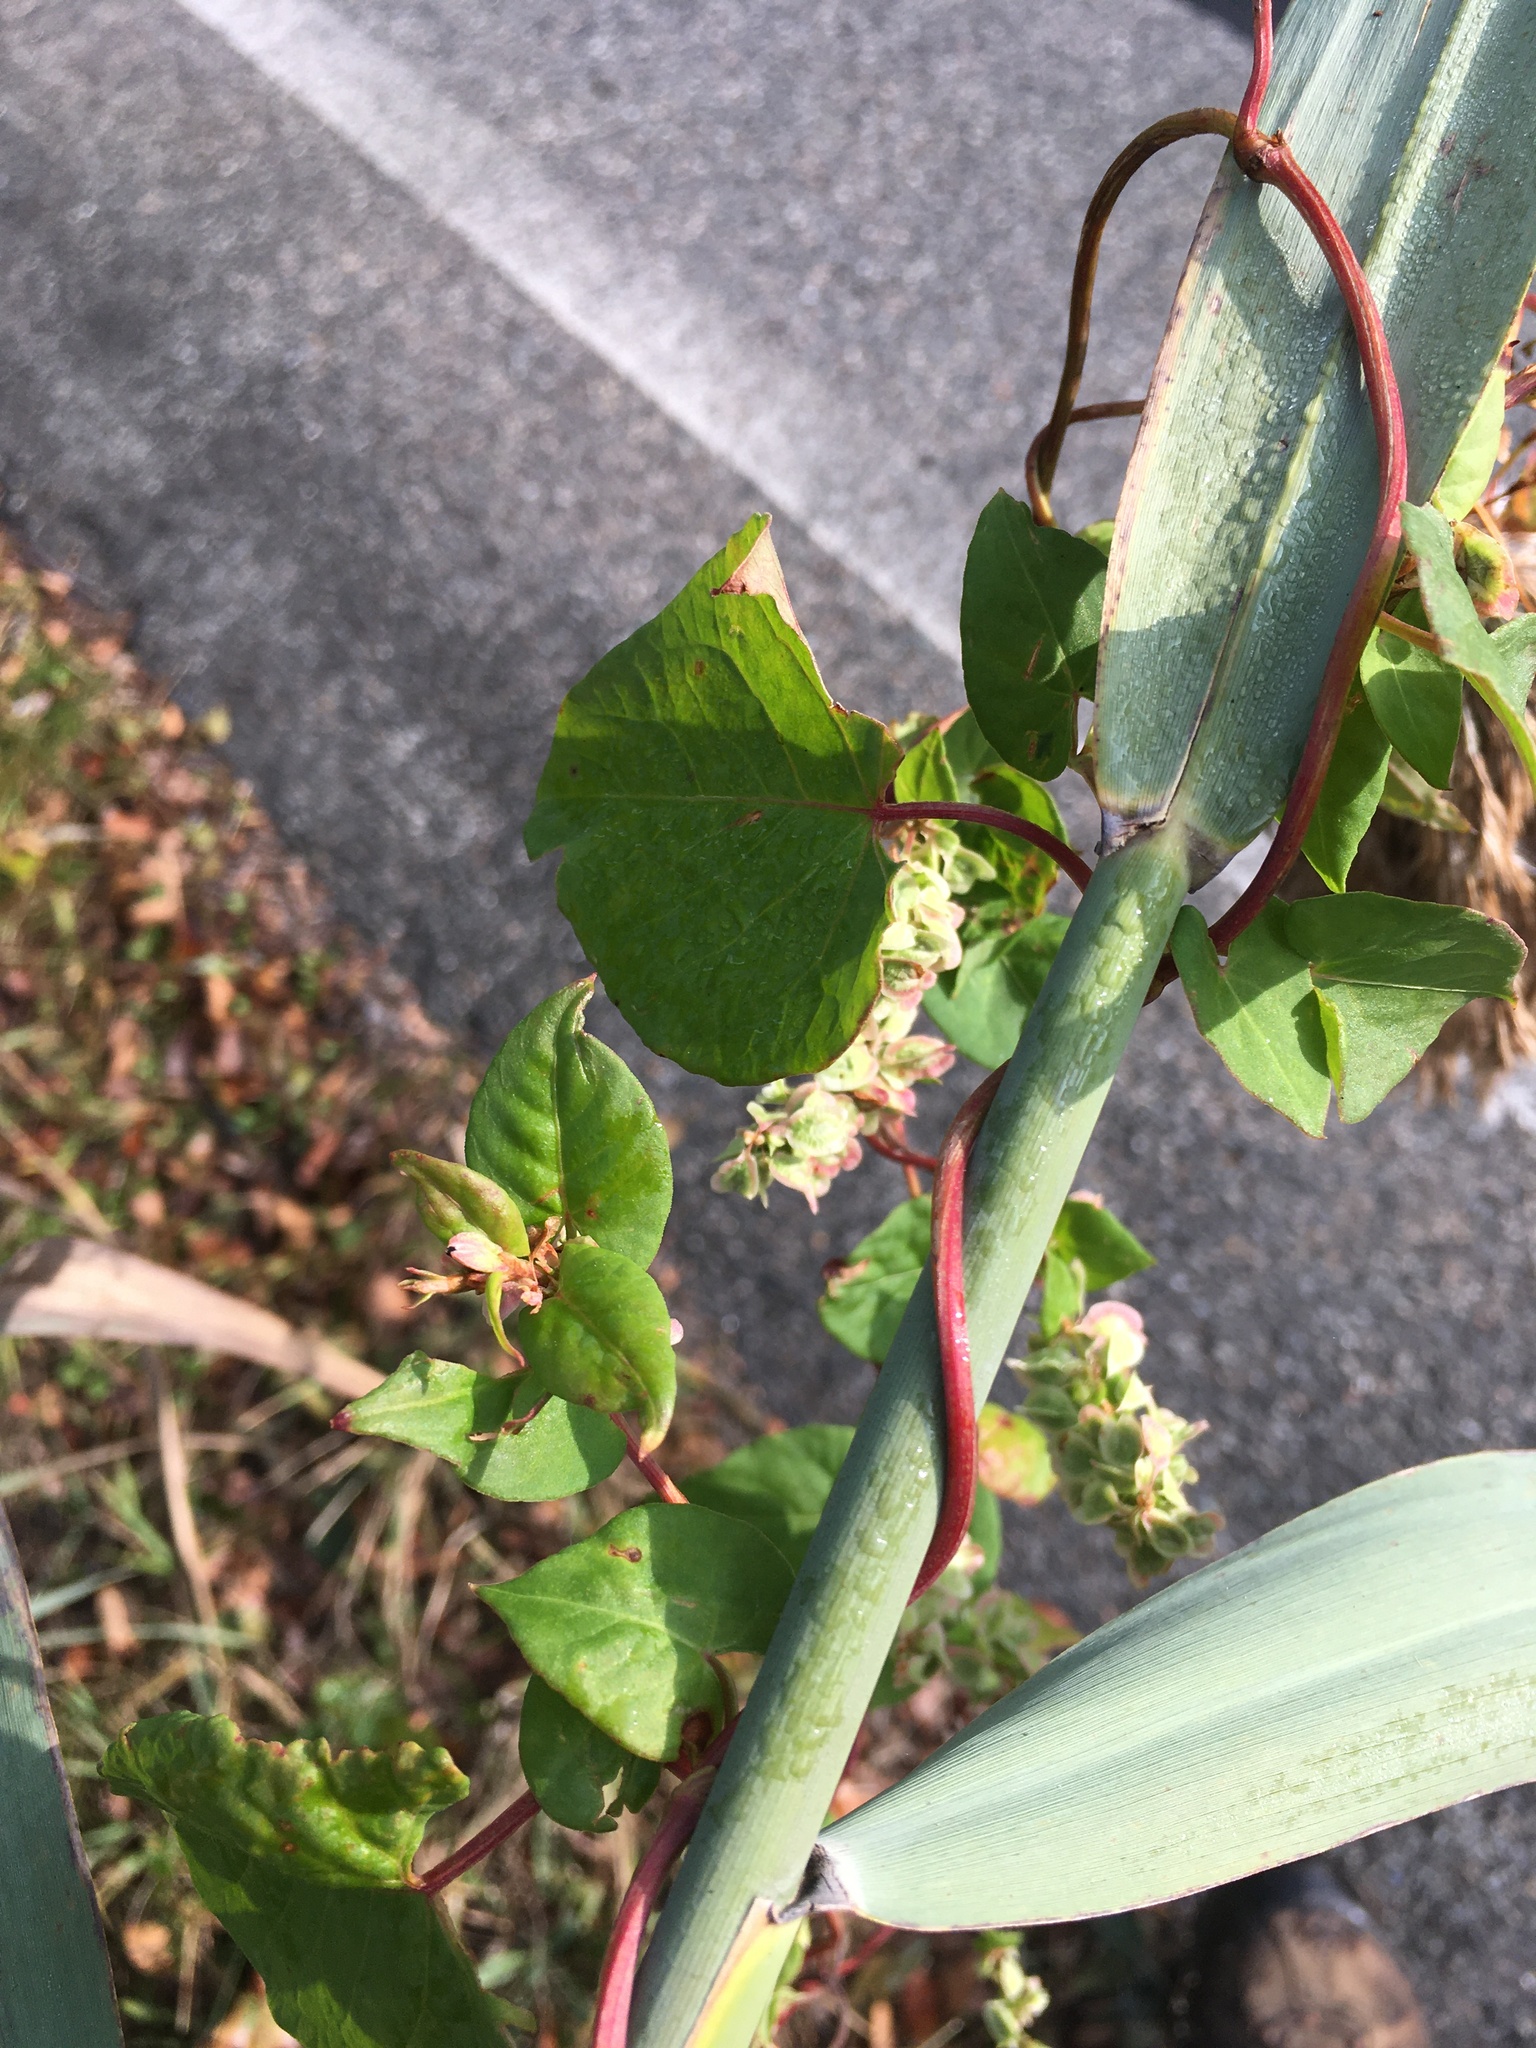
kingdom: Plantae
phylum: Tracheophyta
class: Magnoliopsida
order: Caryophyllales
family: Polygonaceae
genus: Fallopia
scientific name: Fallopia scandens
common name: Climbing false buckwheat
